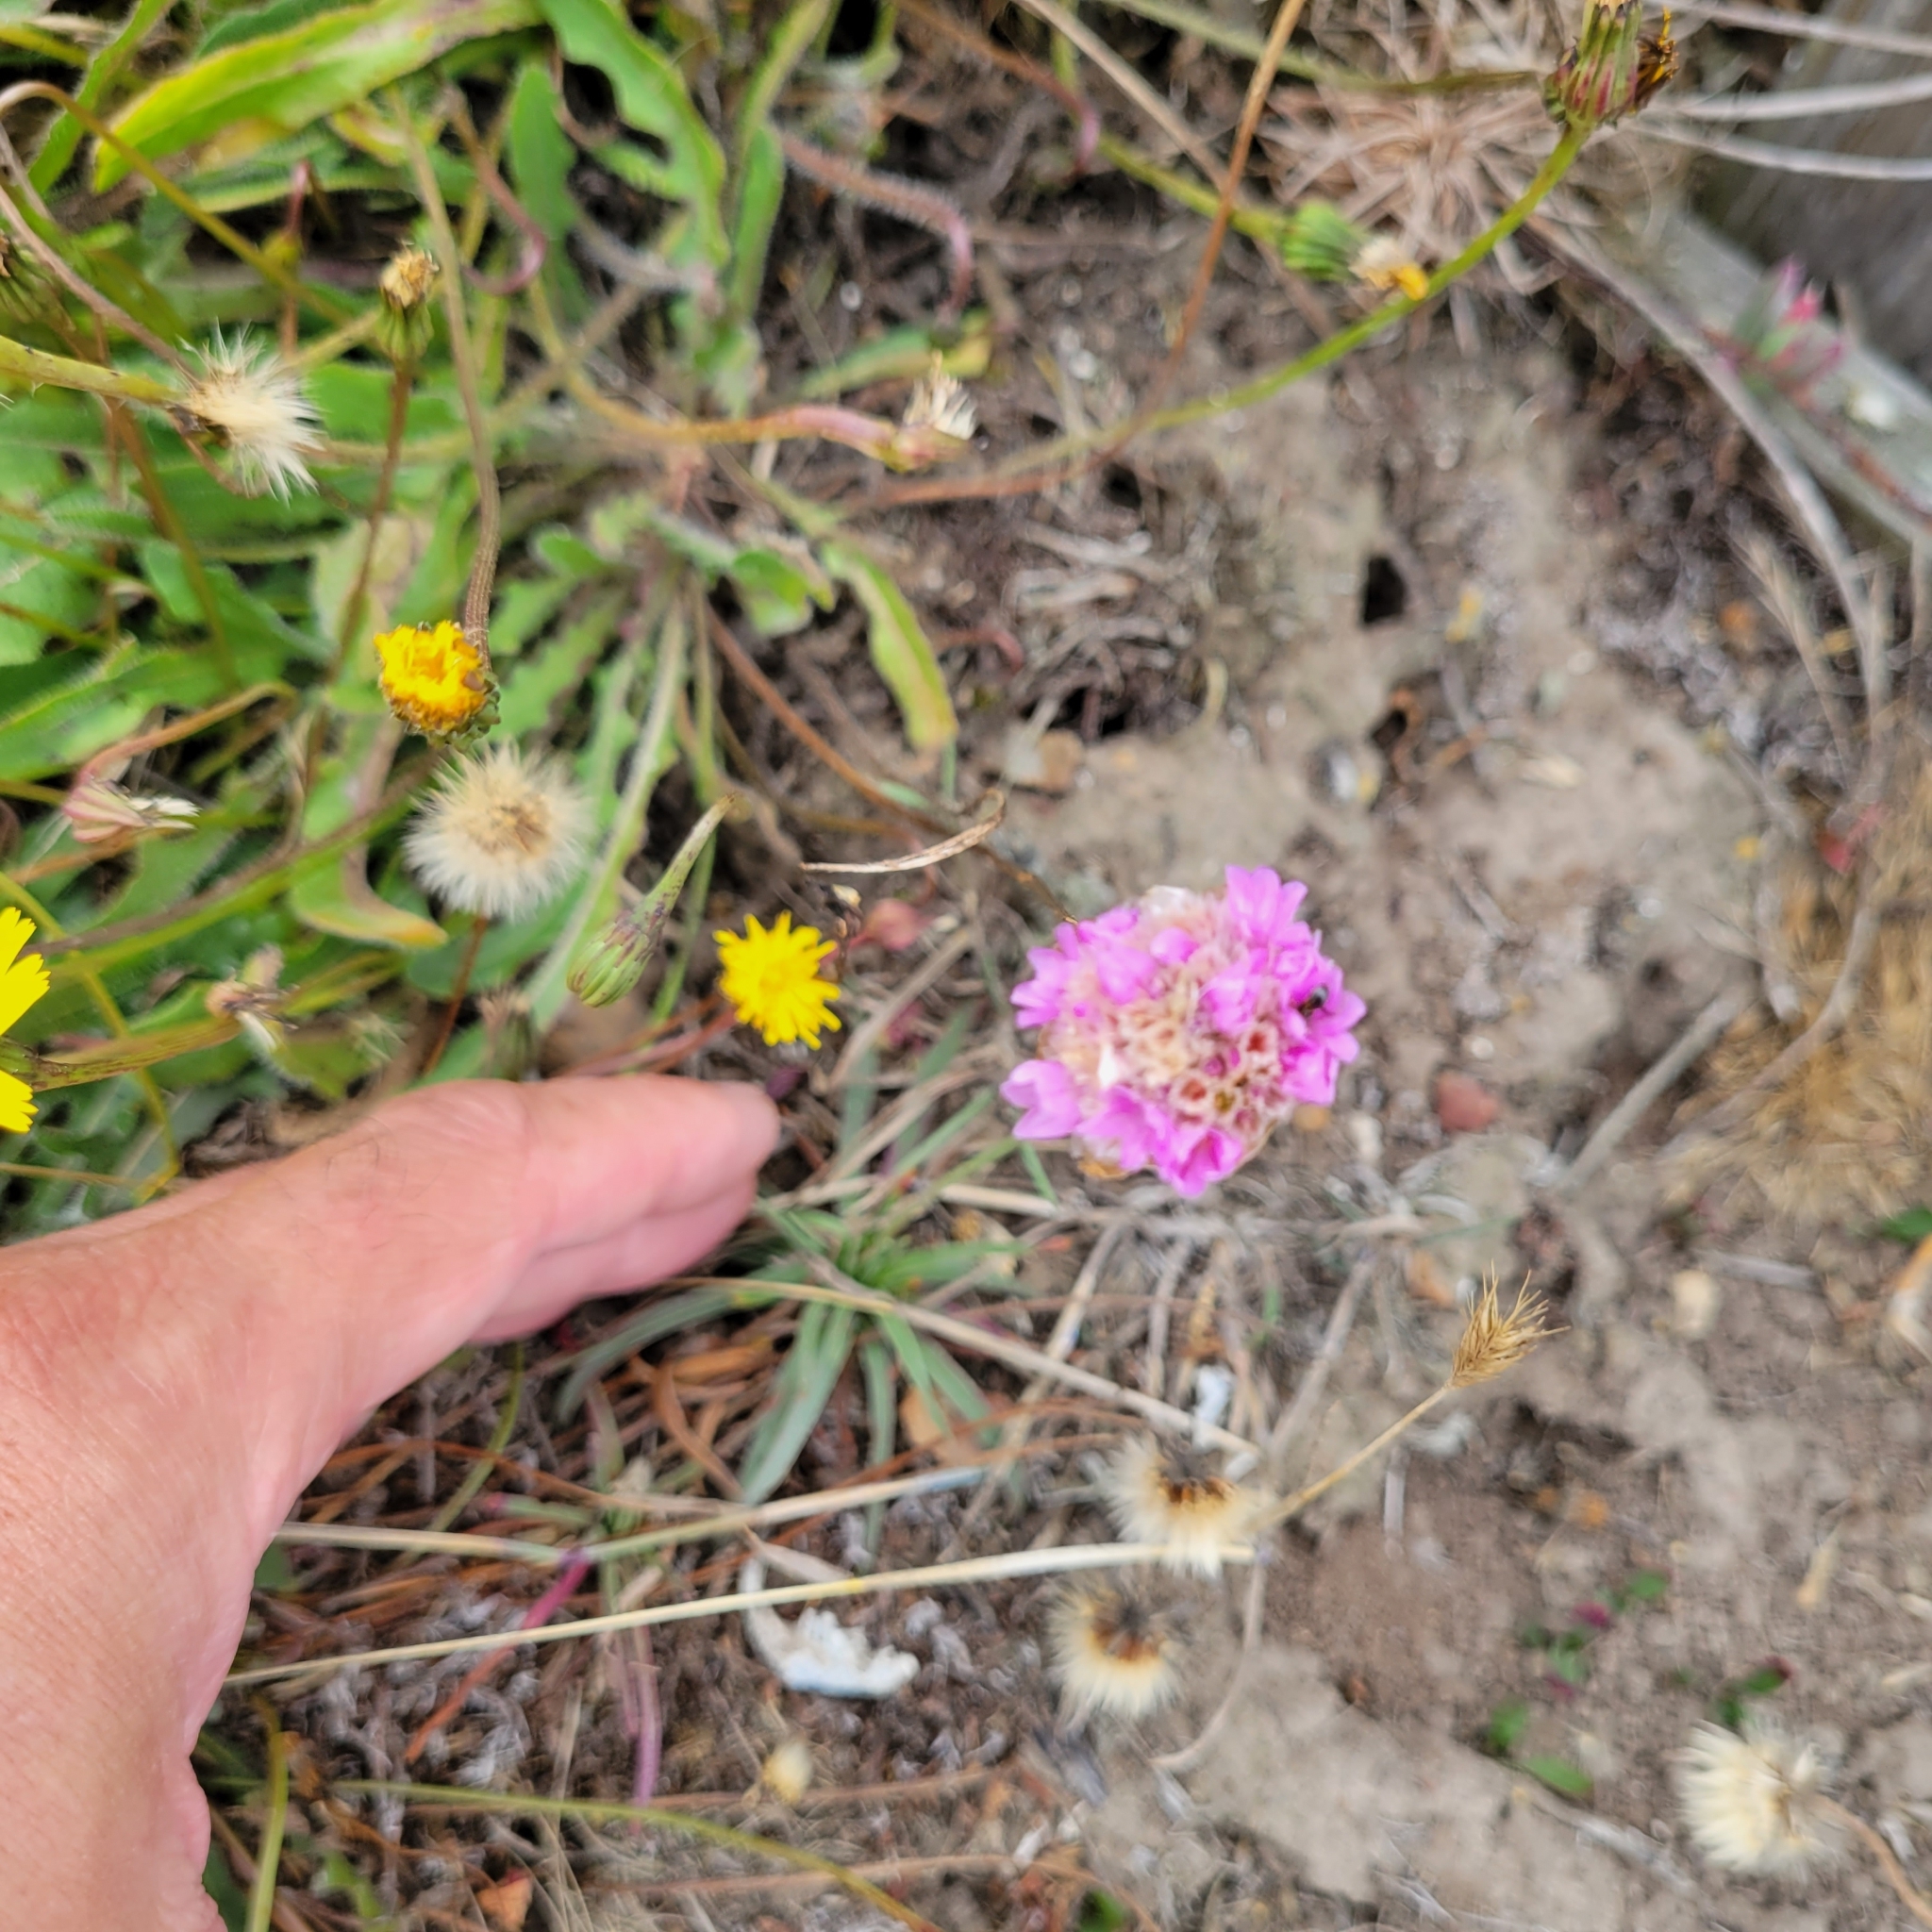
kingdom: Plantae
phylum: Tracheophyta
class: Magnoliopsida
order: Caryophyllales
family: Plumbaginaceae
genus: Armeria
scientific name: Armeria maritima
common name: Thrift
